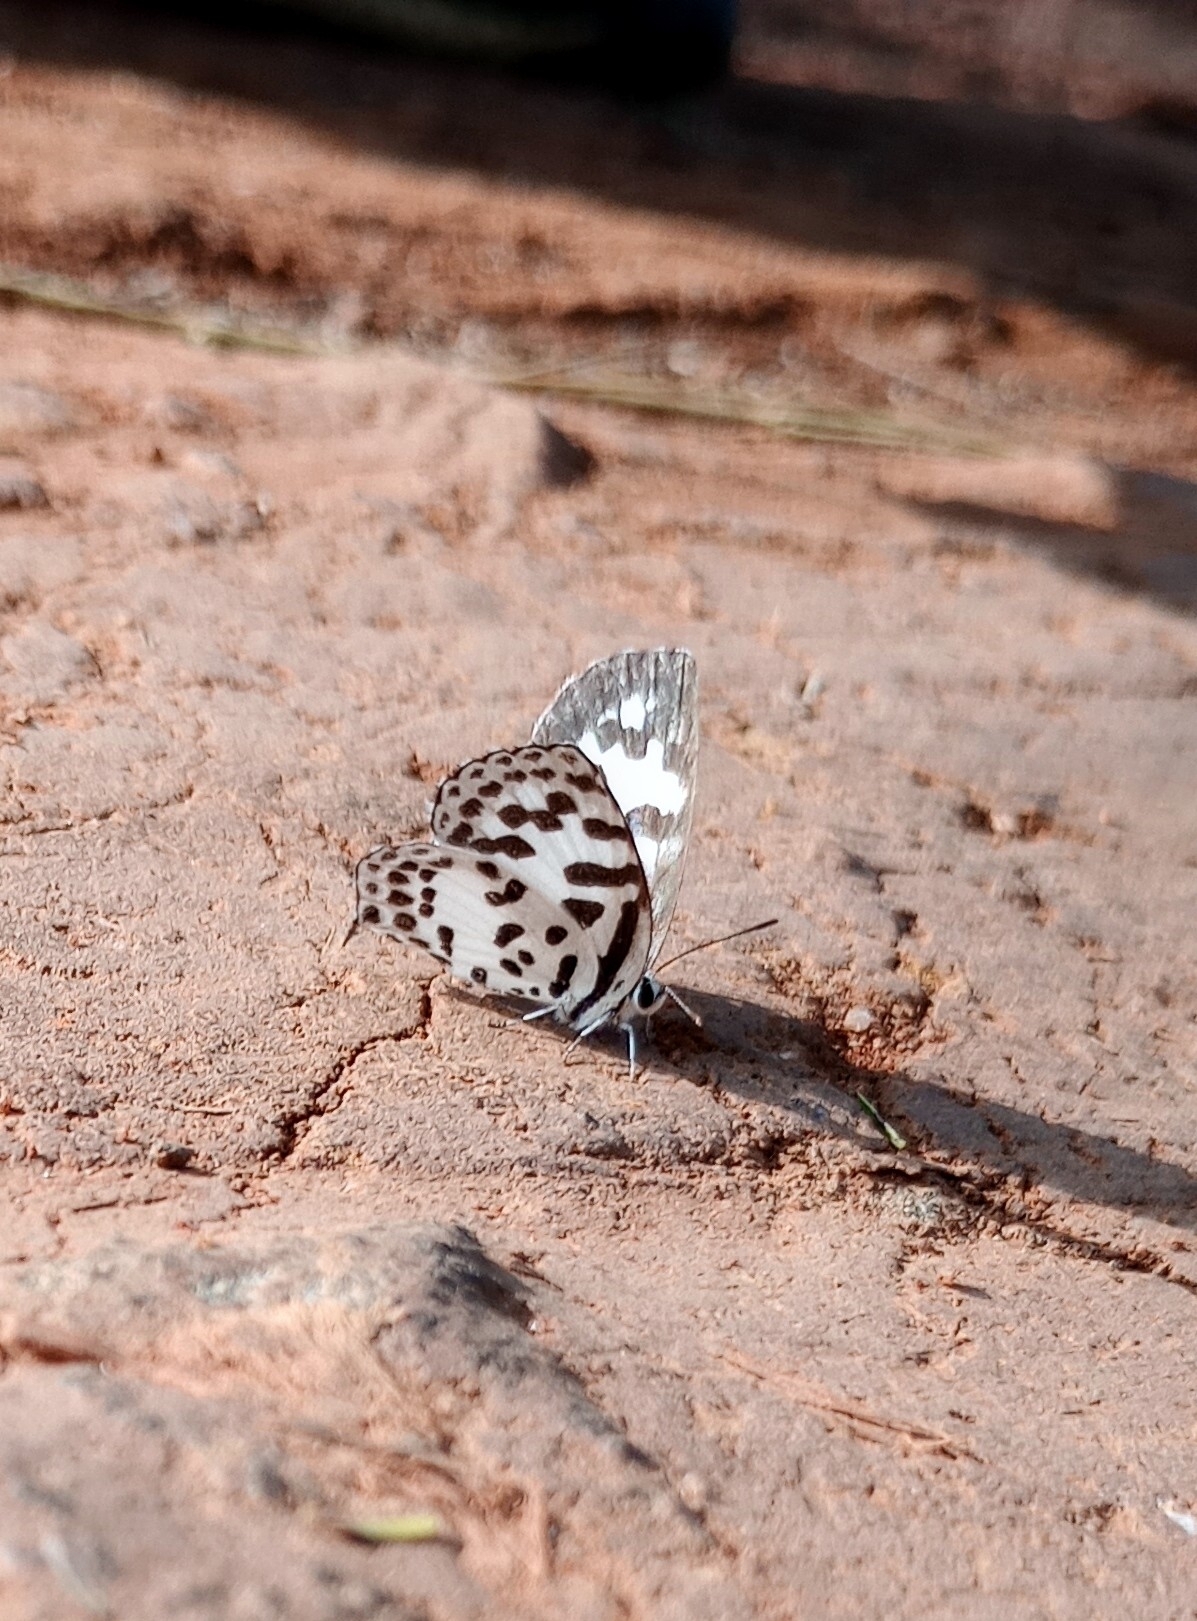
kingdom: Animalia
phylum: Arthropoda
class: Insecta
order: Lepidoptera
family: Lycaenidae
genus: Castalius
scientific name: Castalius rosimon
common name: Common pierrot
